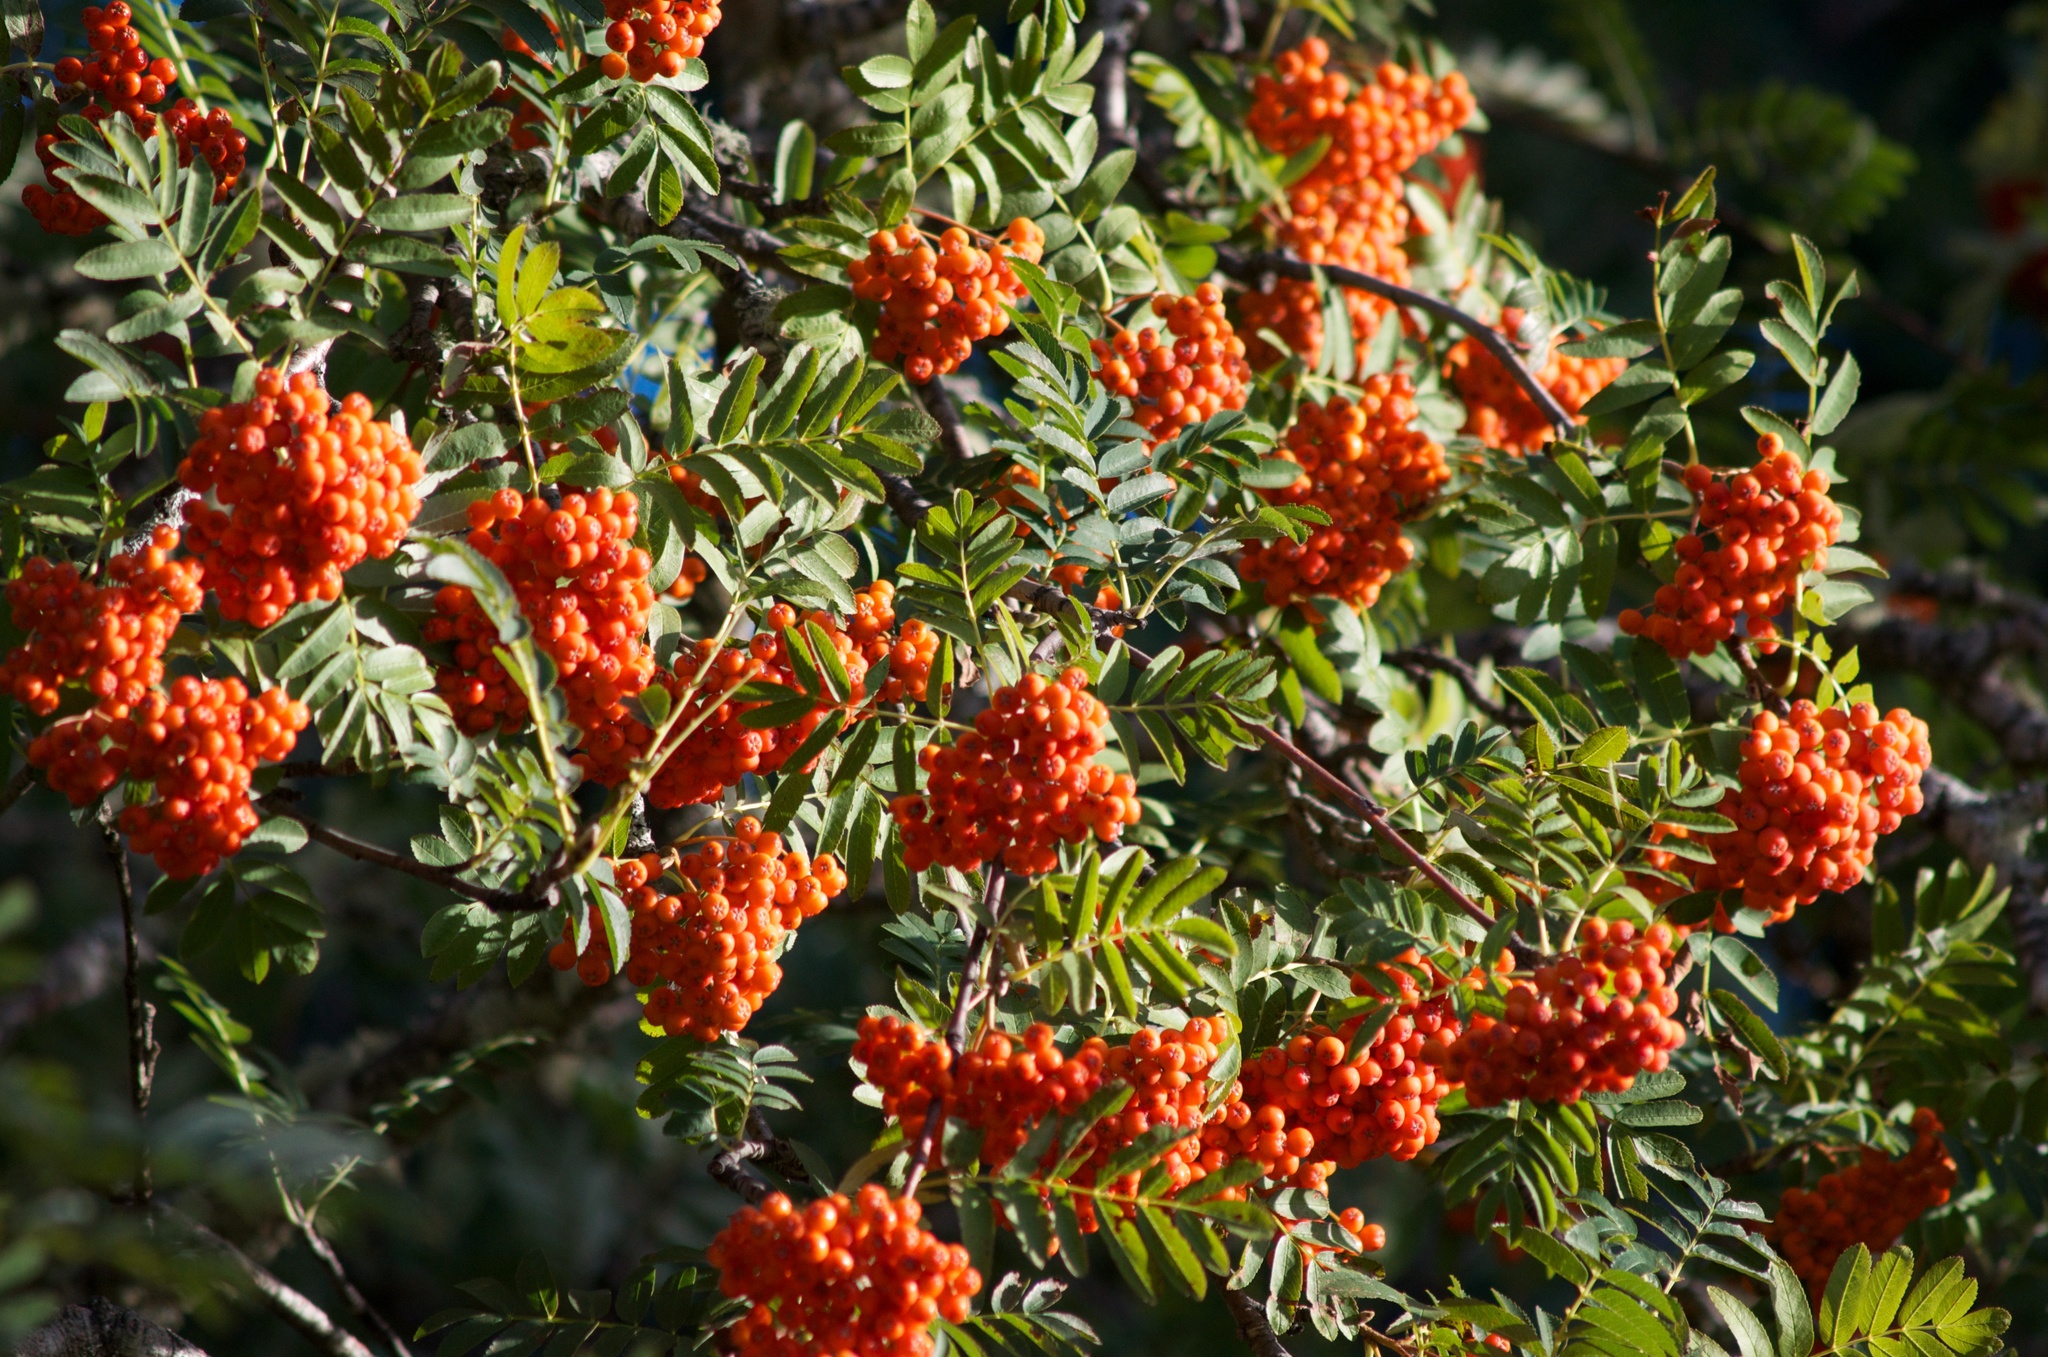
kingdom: Plantae
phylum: Tracheophyta
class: Magnoliopsida
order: Rosales
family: Rosaceae
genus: Sorbus
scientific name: Sorbus aucuparia
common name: Rowan
